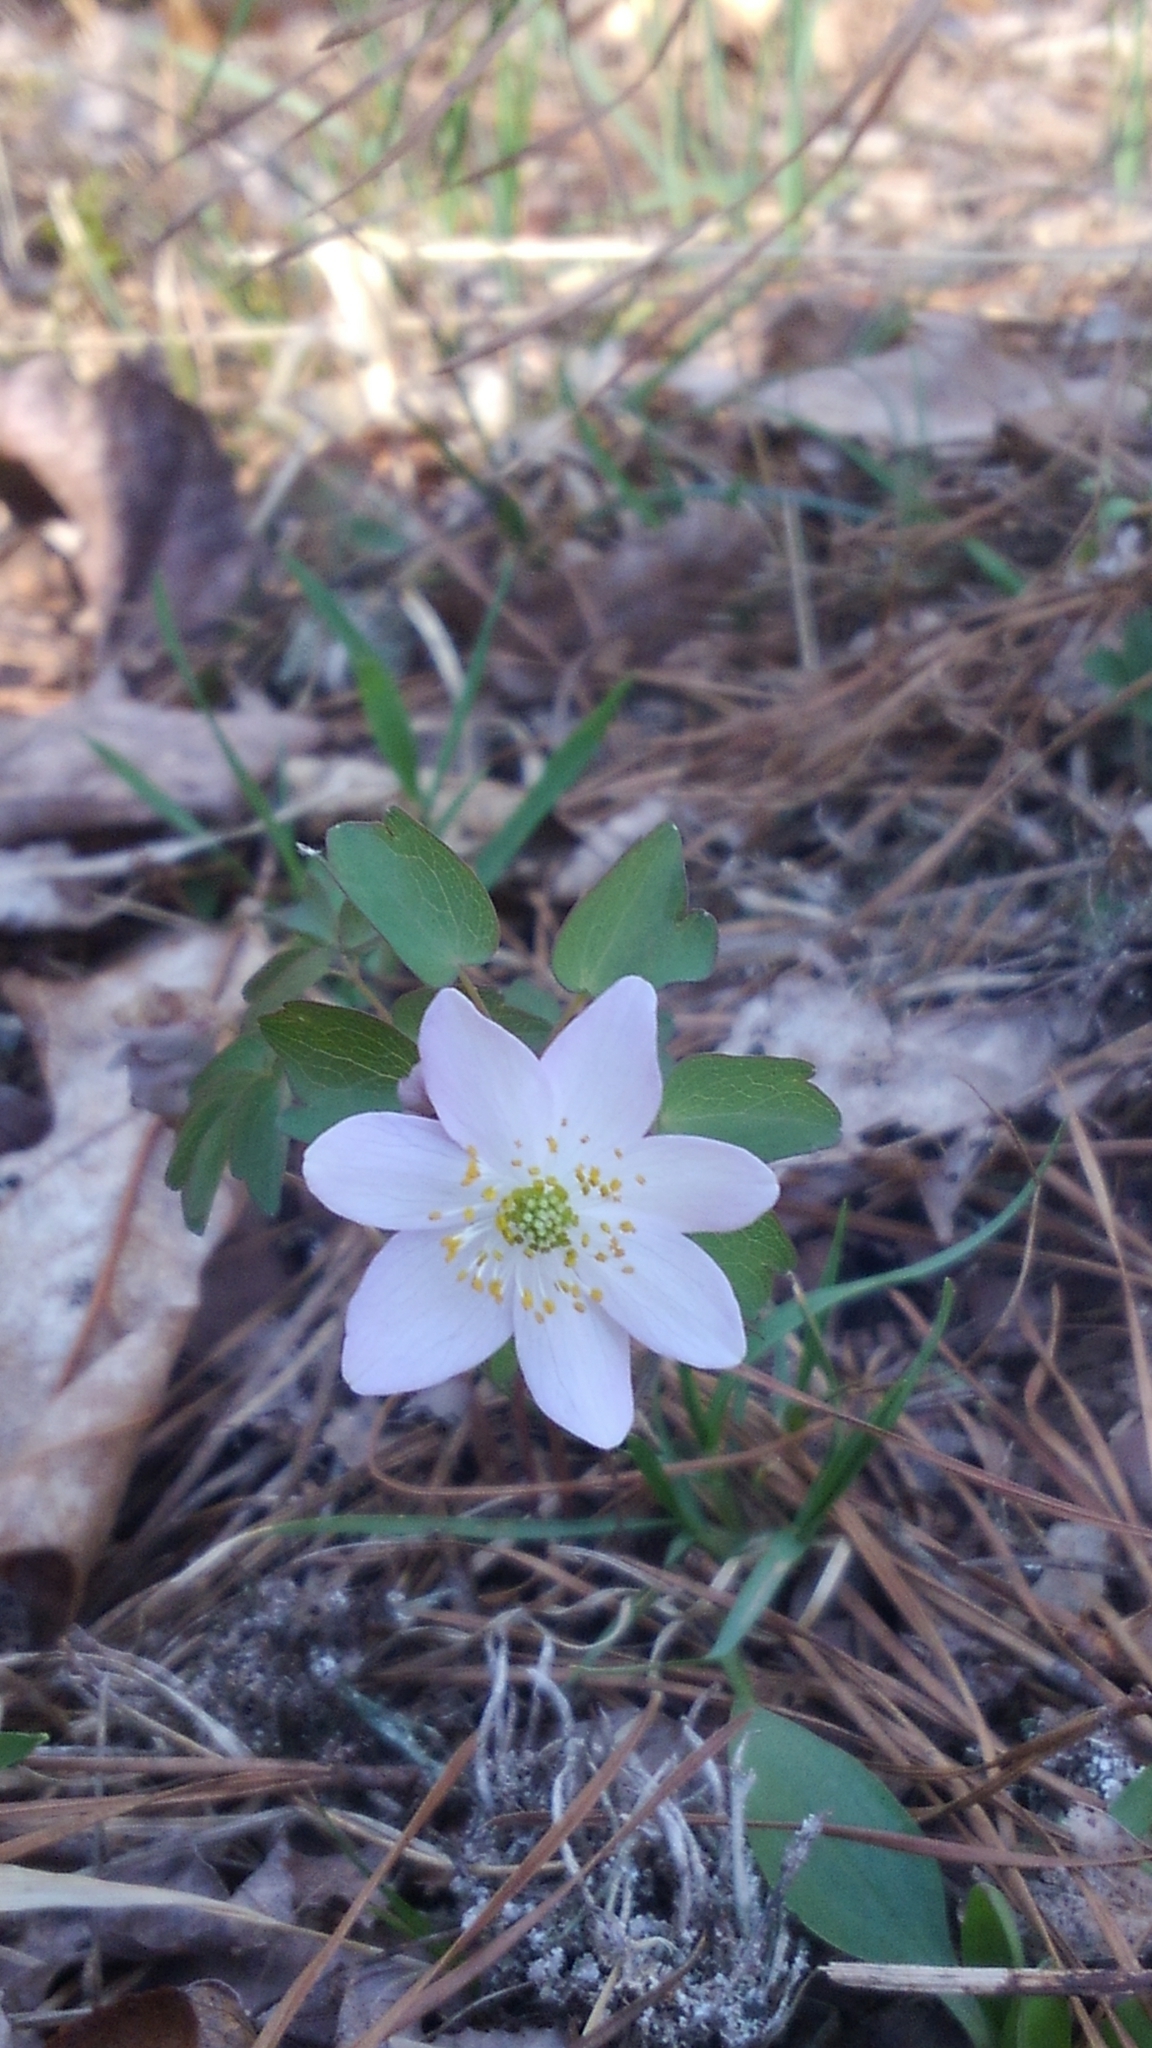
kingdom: Plantae
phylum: Tracheophyta
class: Magnoliopsida
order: Ranunculales
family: Ranunculaceae
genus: Thalictrum
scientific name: Thalictrum thalictroides
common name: Rue-anemone
